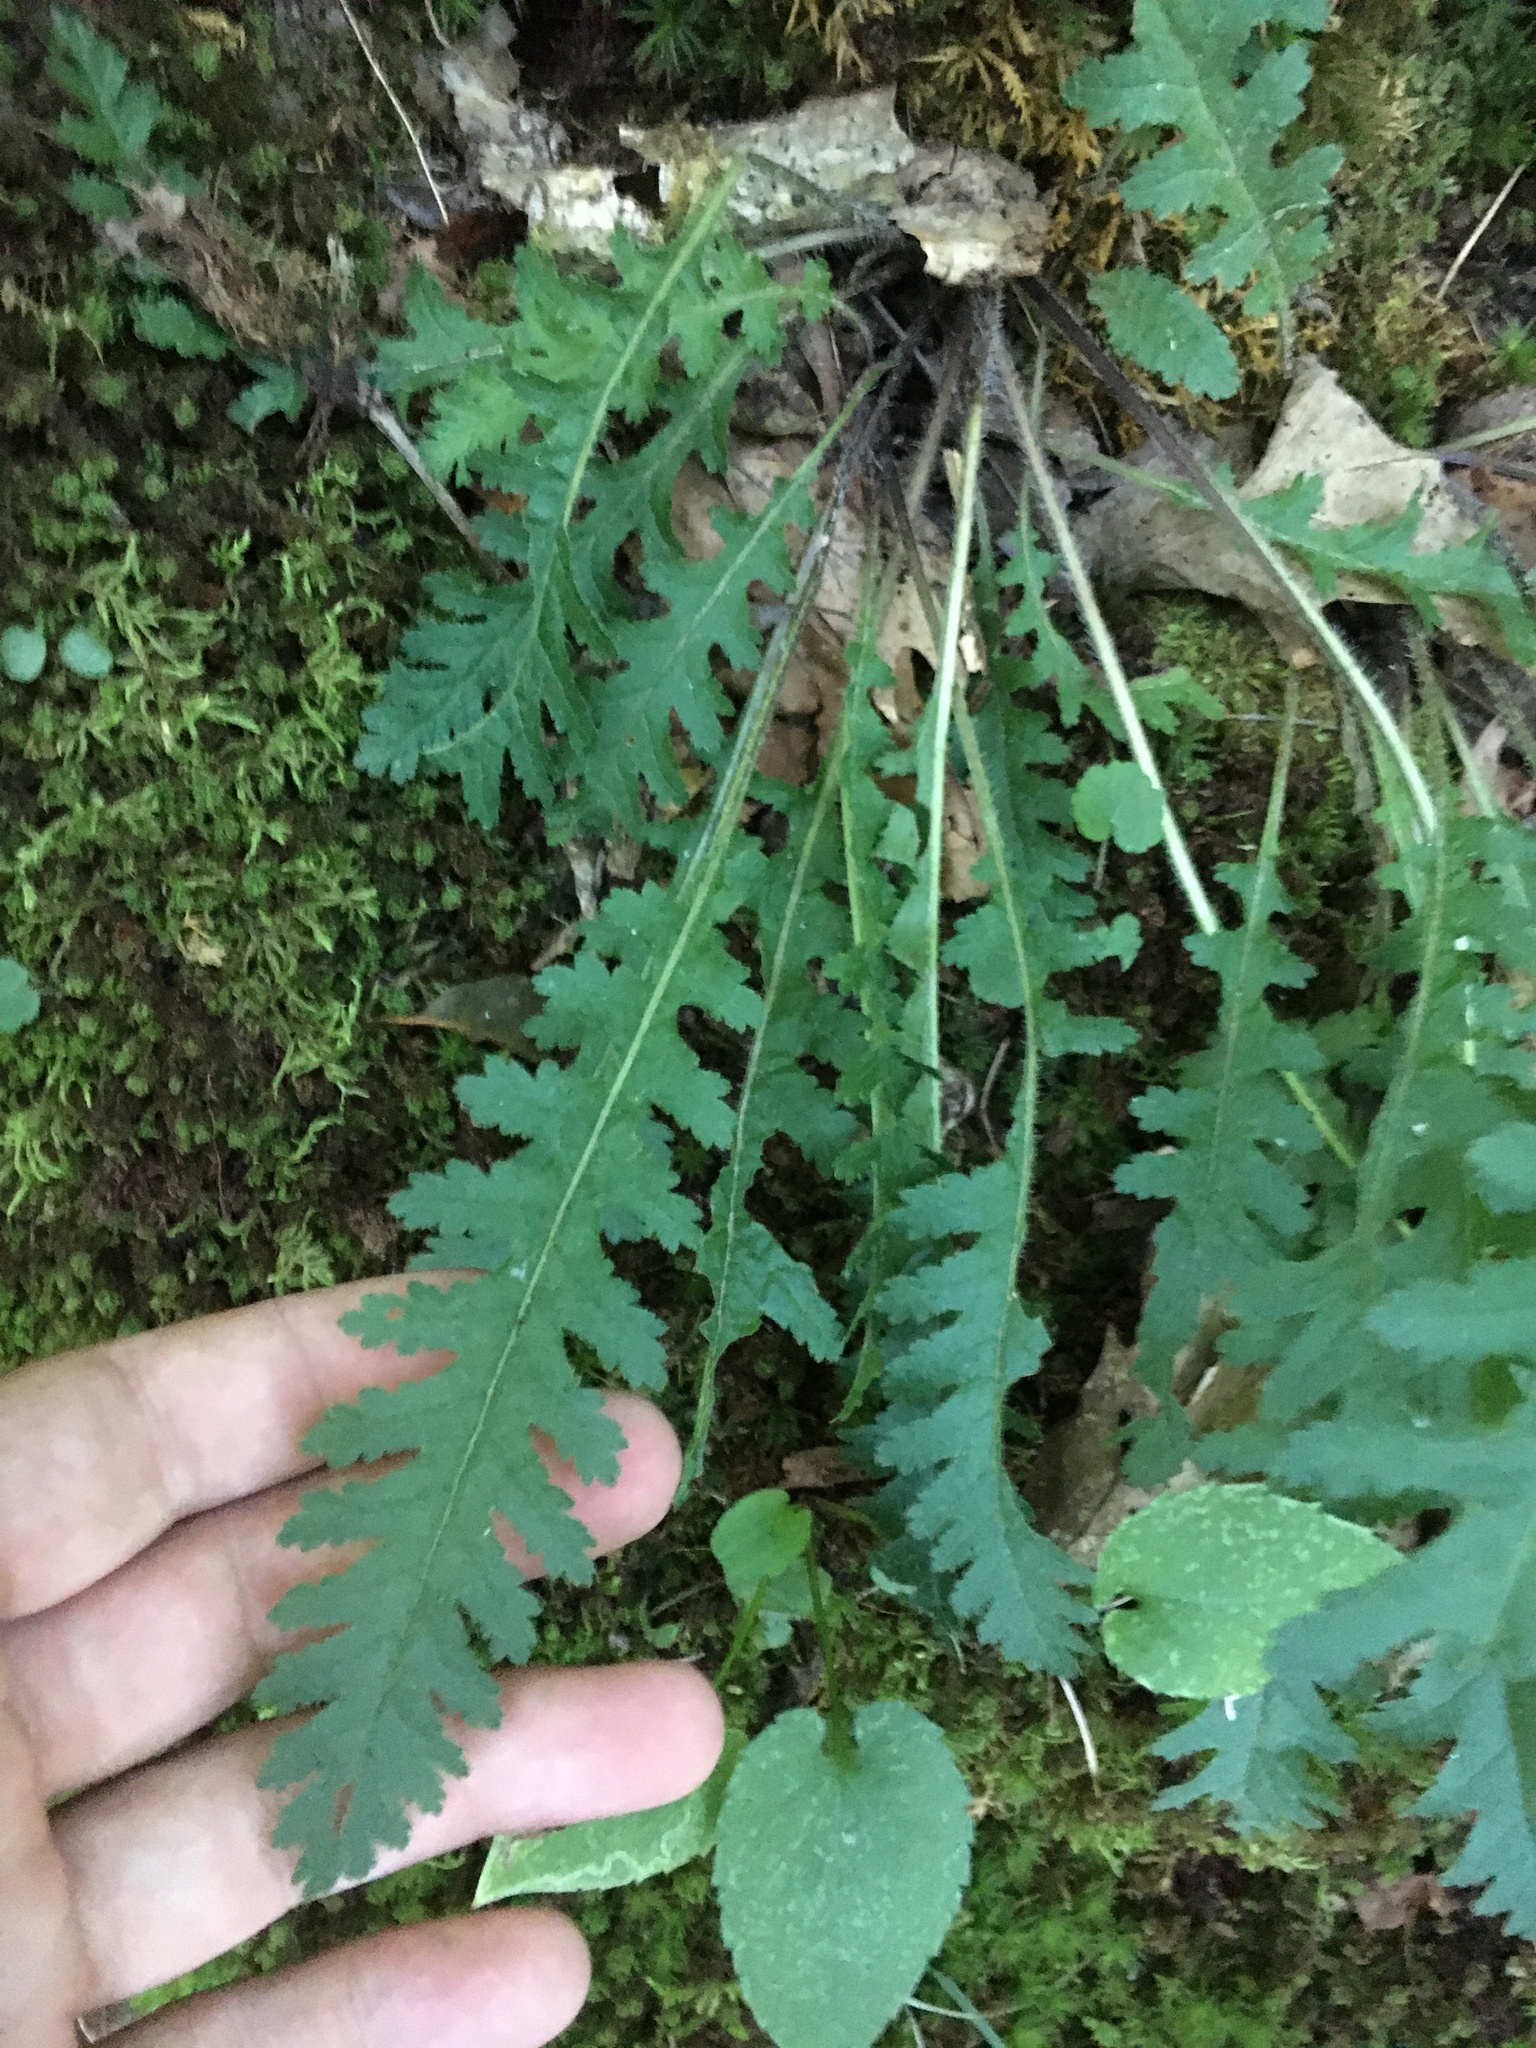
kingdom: Plantae
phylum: Tracheophyta
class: Magnoliopsida
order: Lamiales
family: Orobanchaceae
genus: Pedicularis
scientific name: Pedicularis canadensis
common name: Early lousewort
